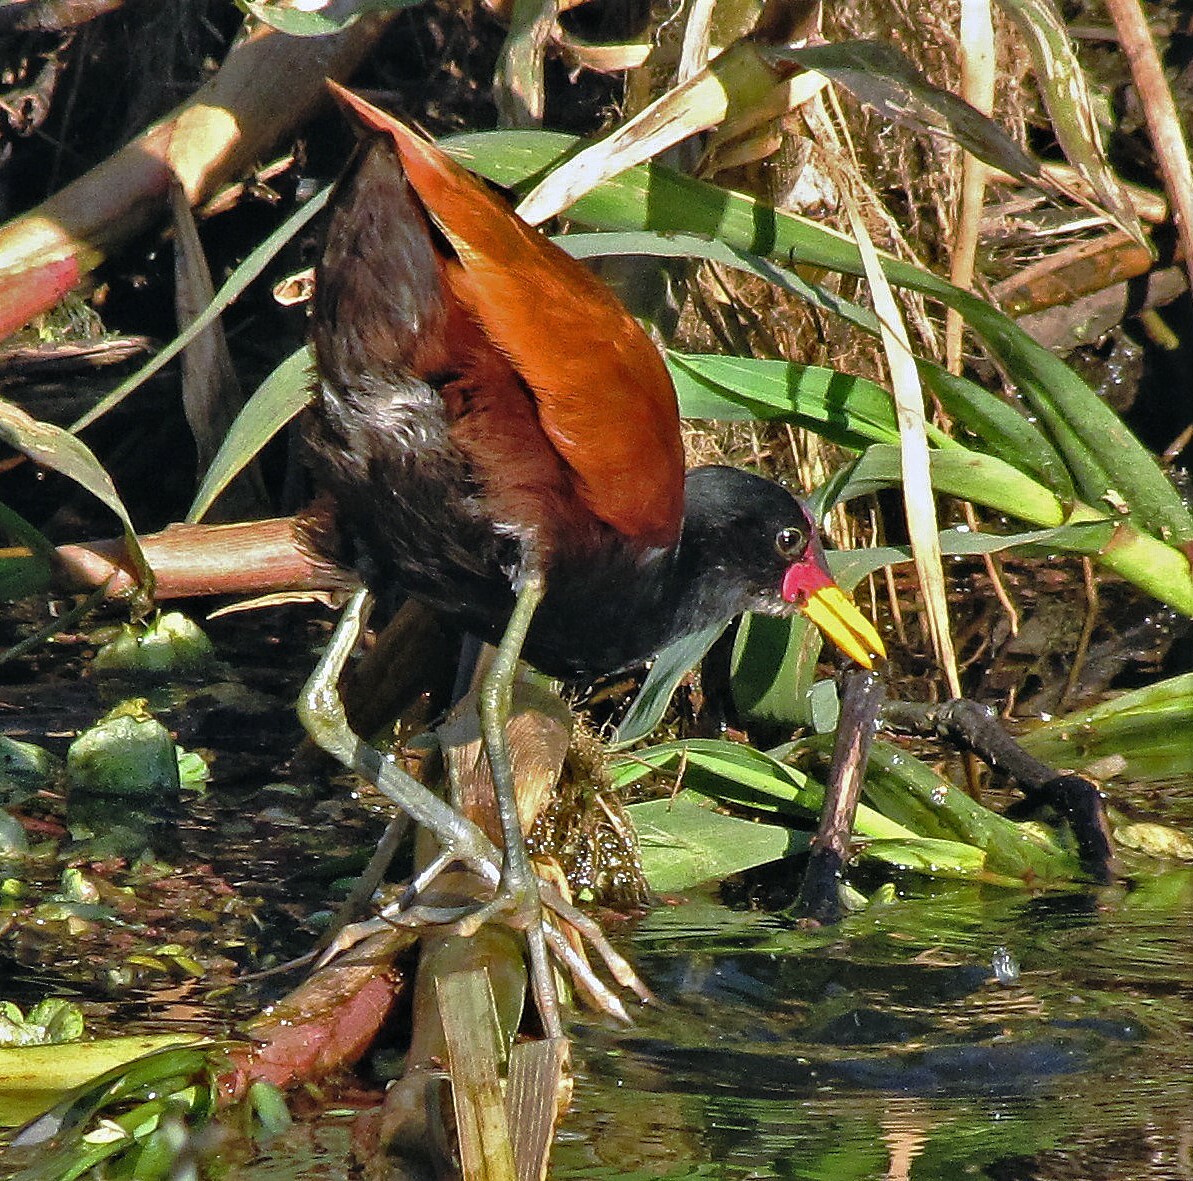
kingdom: Animalia
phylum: Chordata
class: Aves
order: Charadriiformes
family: Jacanidae
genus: Jacana
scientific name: Jacana jacana
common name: Wattled jacana
